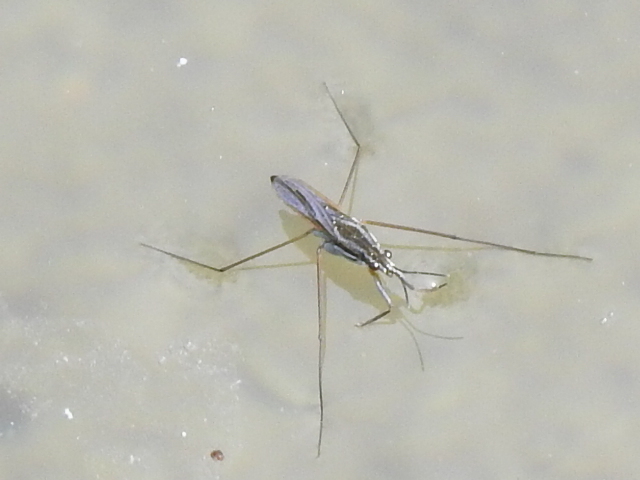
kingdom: Animalia
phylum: Arthropoda
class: Insecta
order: Hemiptera
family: Gerridae
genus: Gerris
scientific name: Gerris
